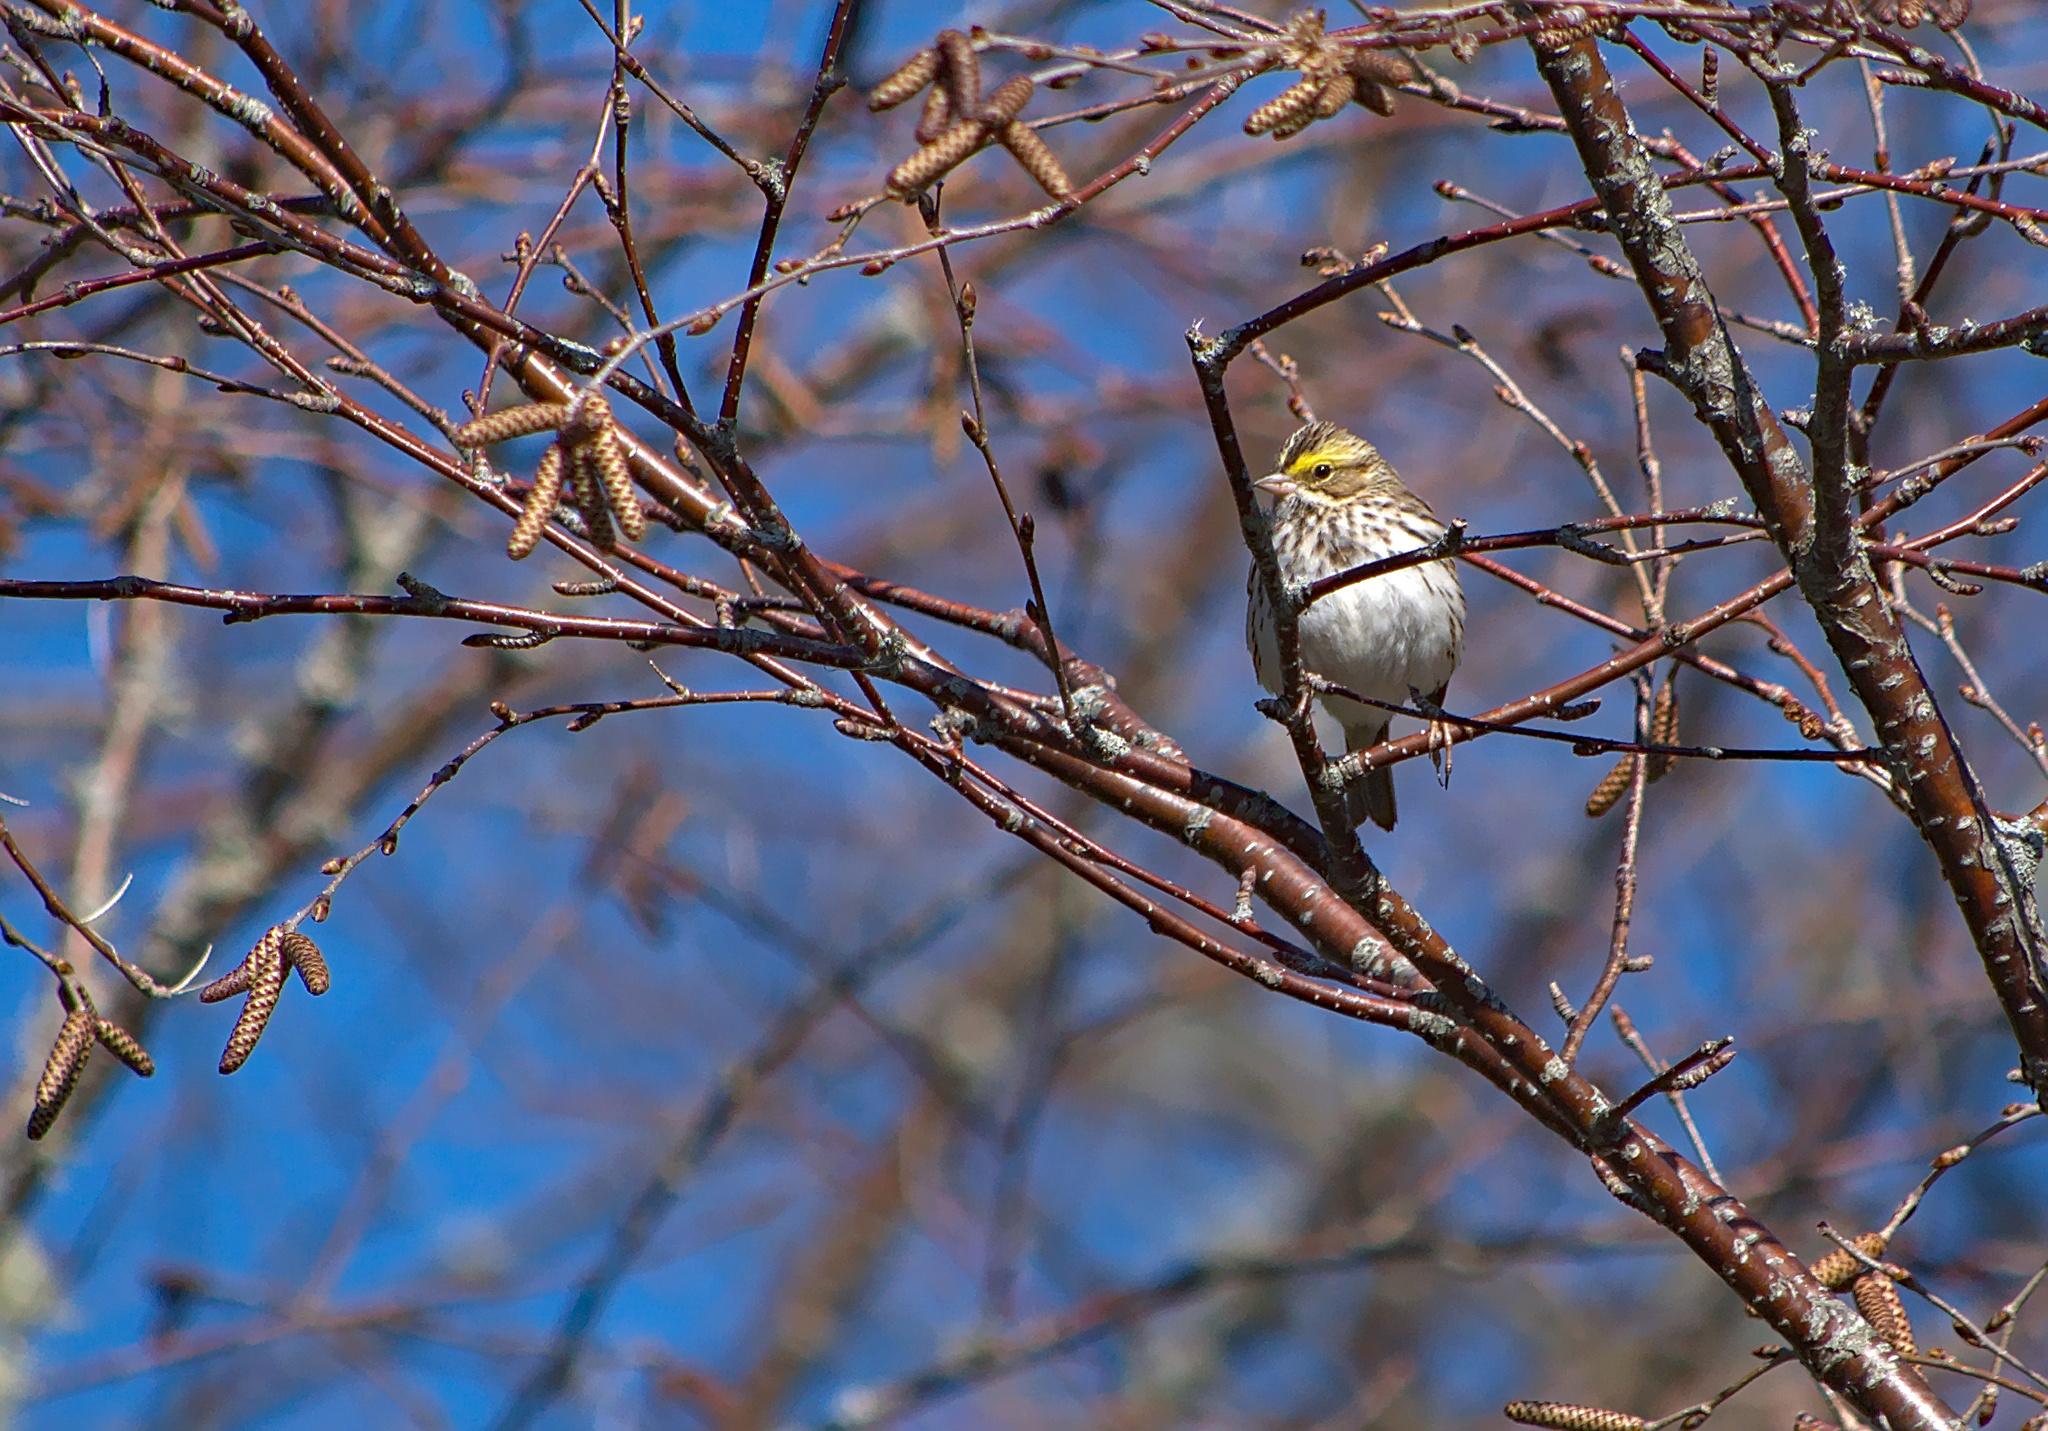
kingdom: Animalia
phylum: Chordata
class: Aves
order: Passeriformes
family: Passerellidae
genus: Passerculus
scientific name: Passerculus sandwichensis
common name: Savannah sparrow
